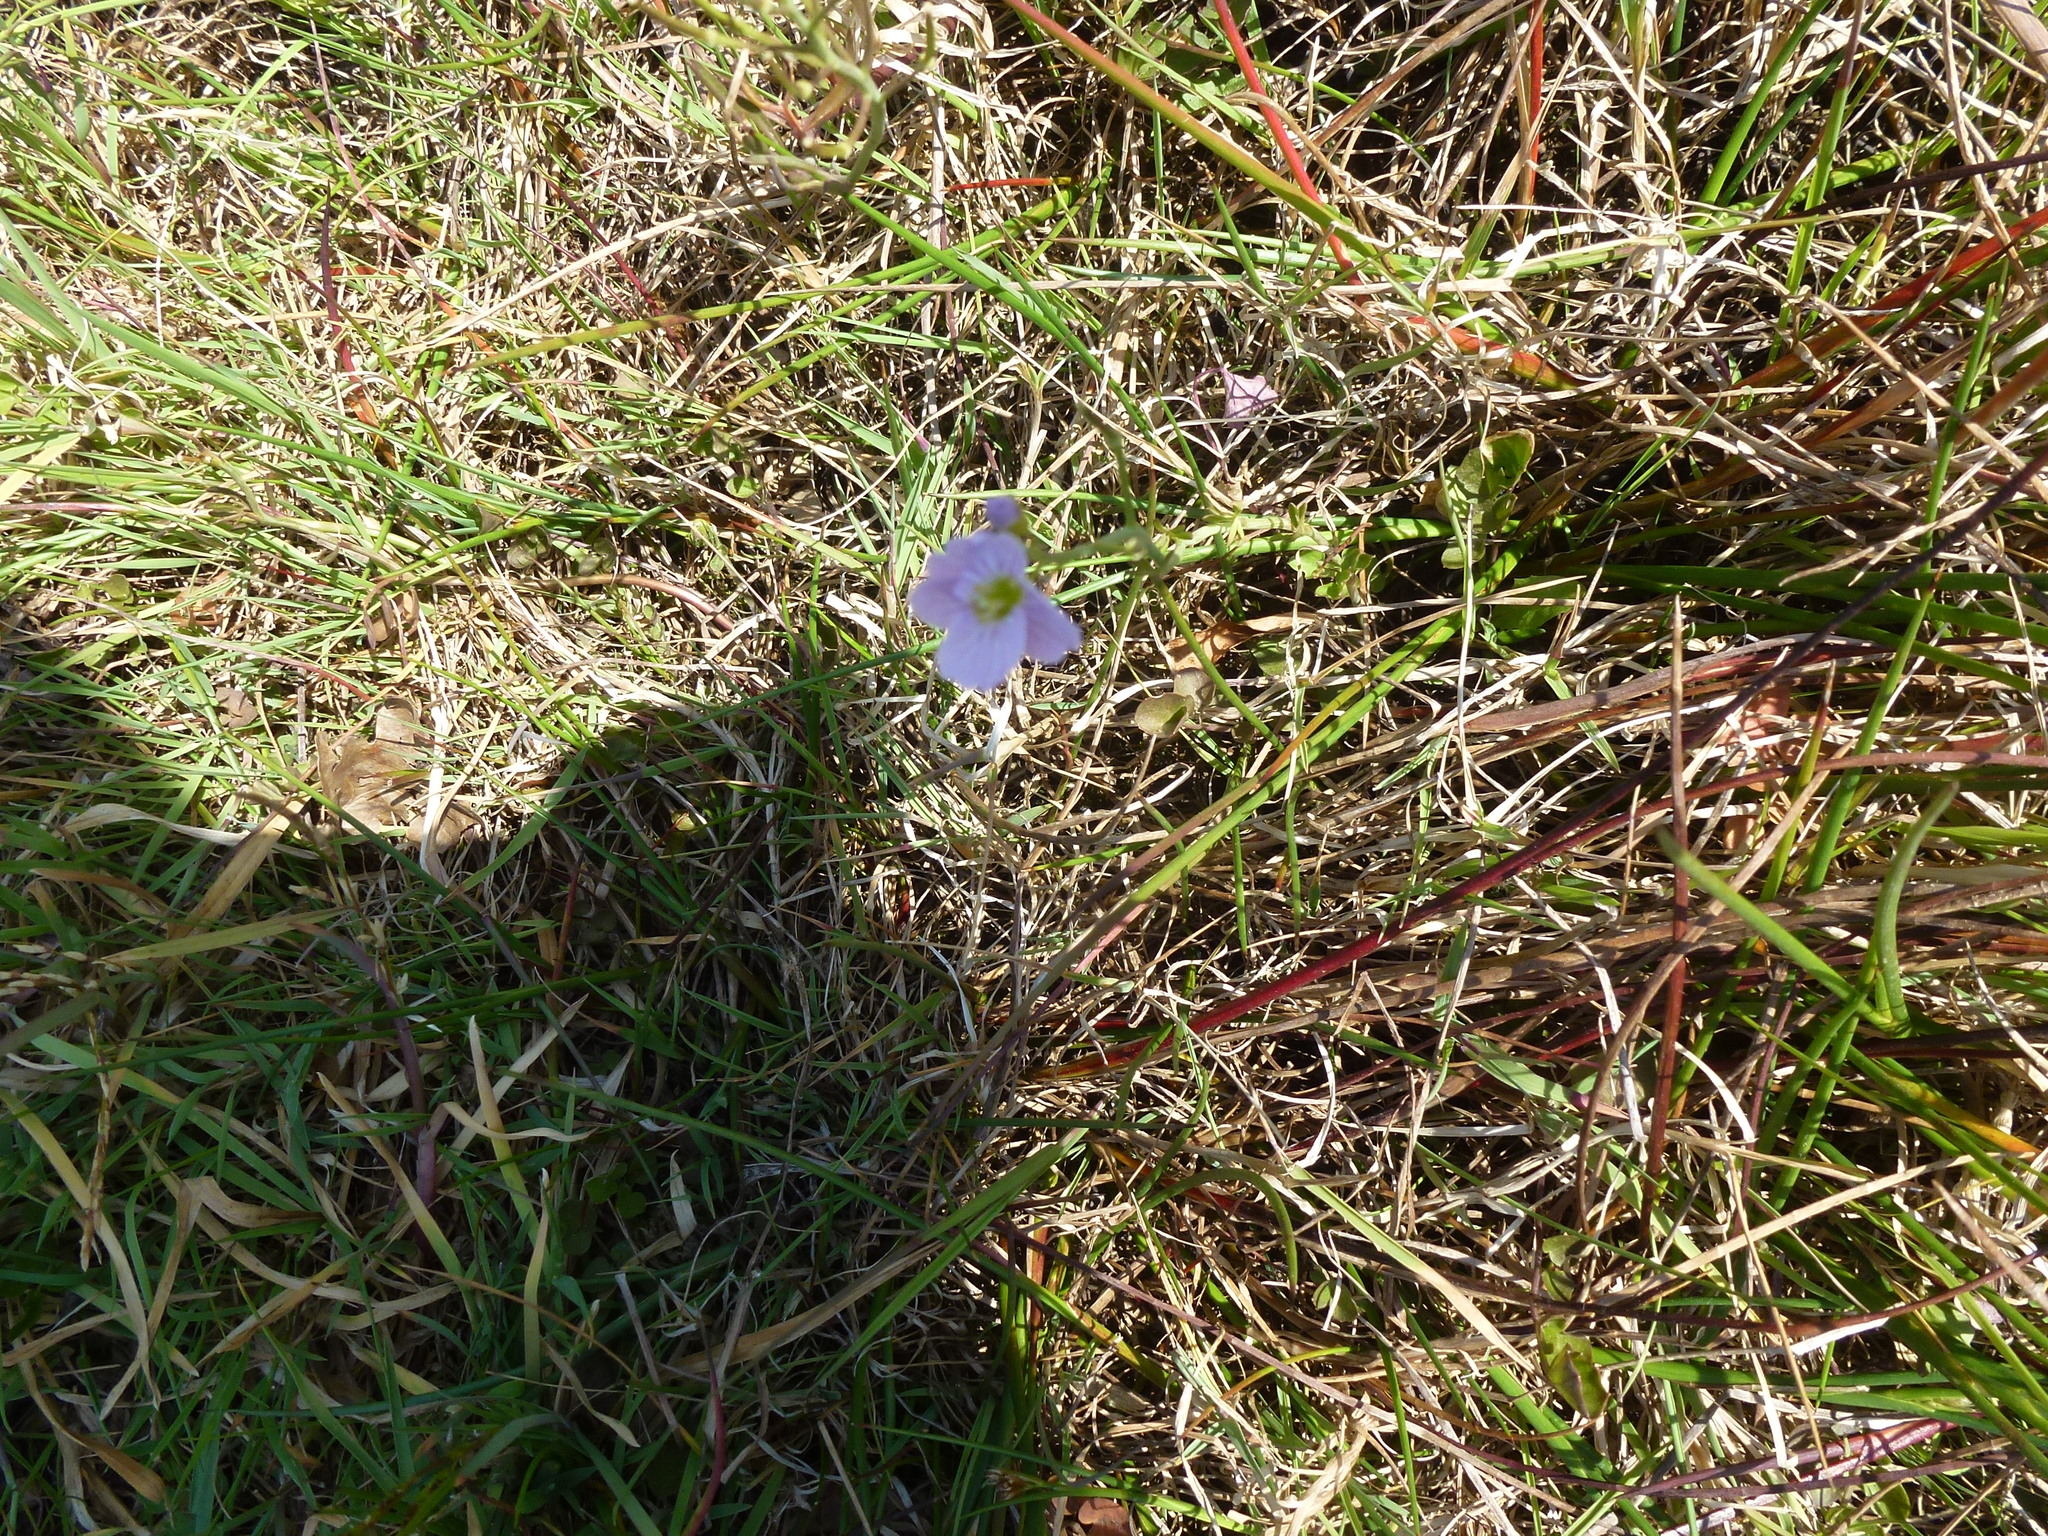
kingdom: Plantae
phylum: Tracheophyta
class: Magnoliopsida
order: Brassicales
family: Brassicaceae
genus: Cardamine
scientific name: Cardamine pratensis
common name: Cuckoo flower
